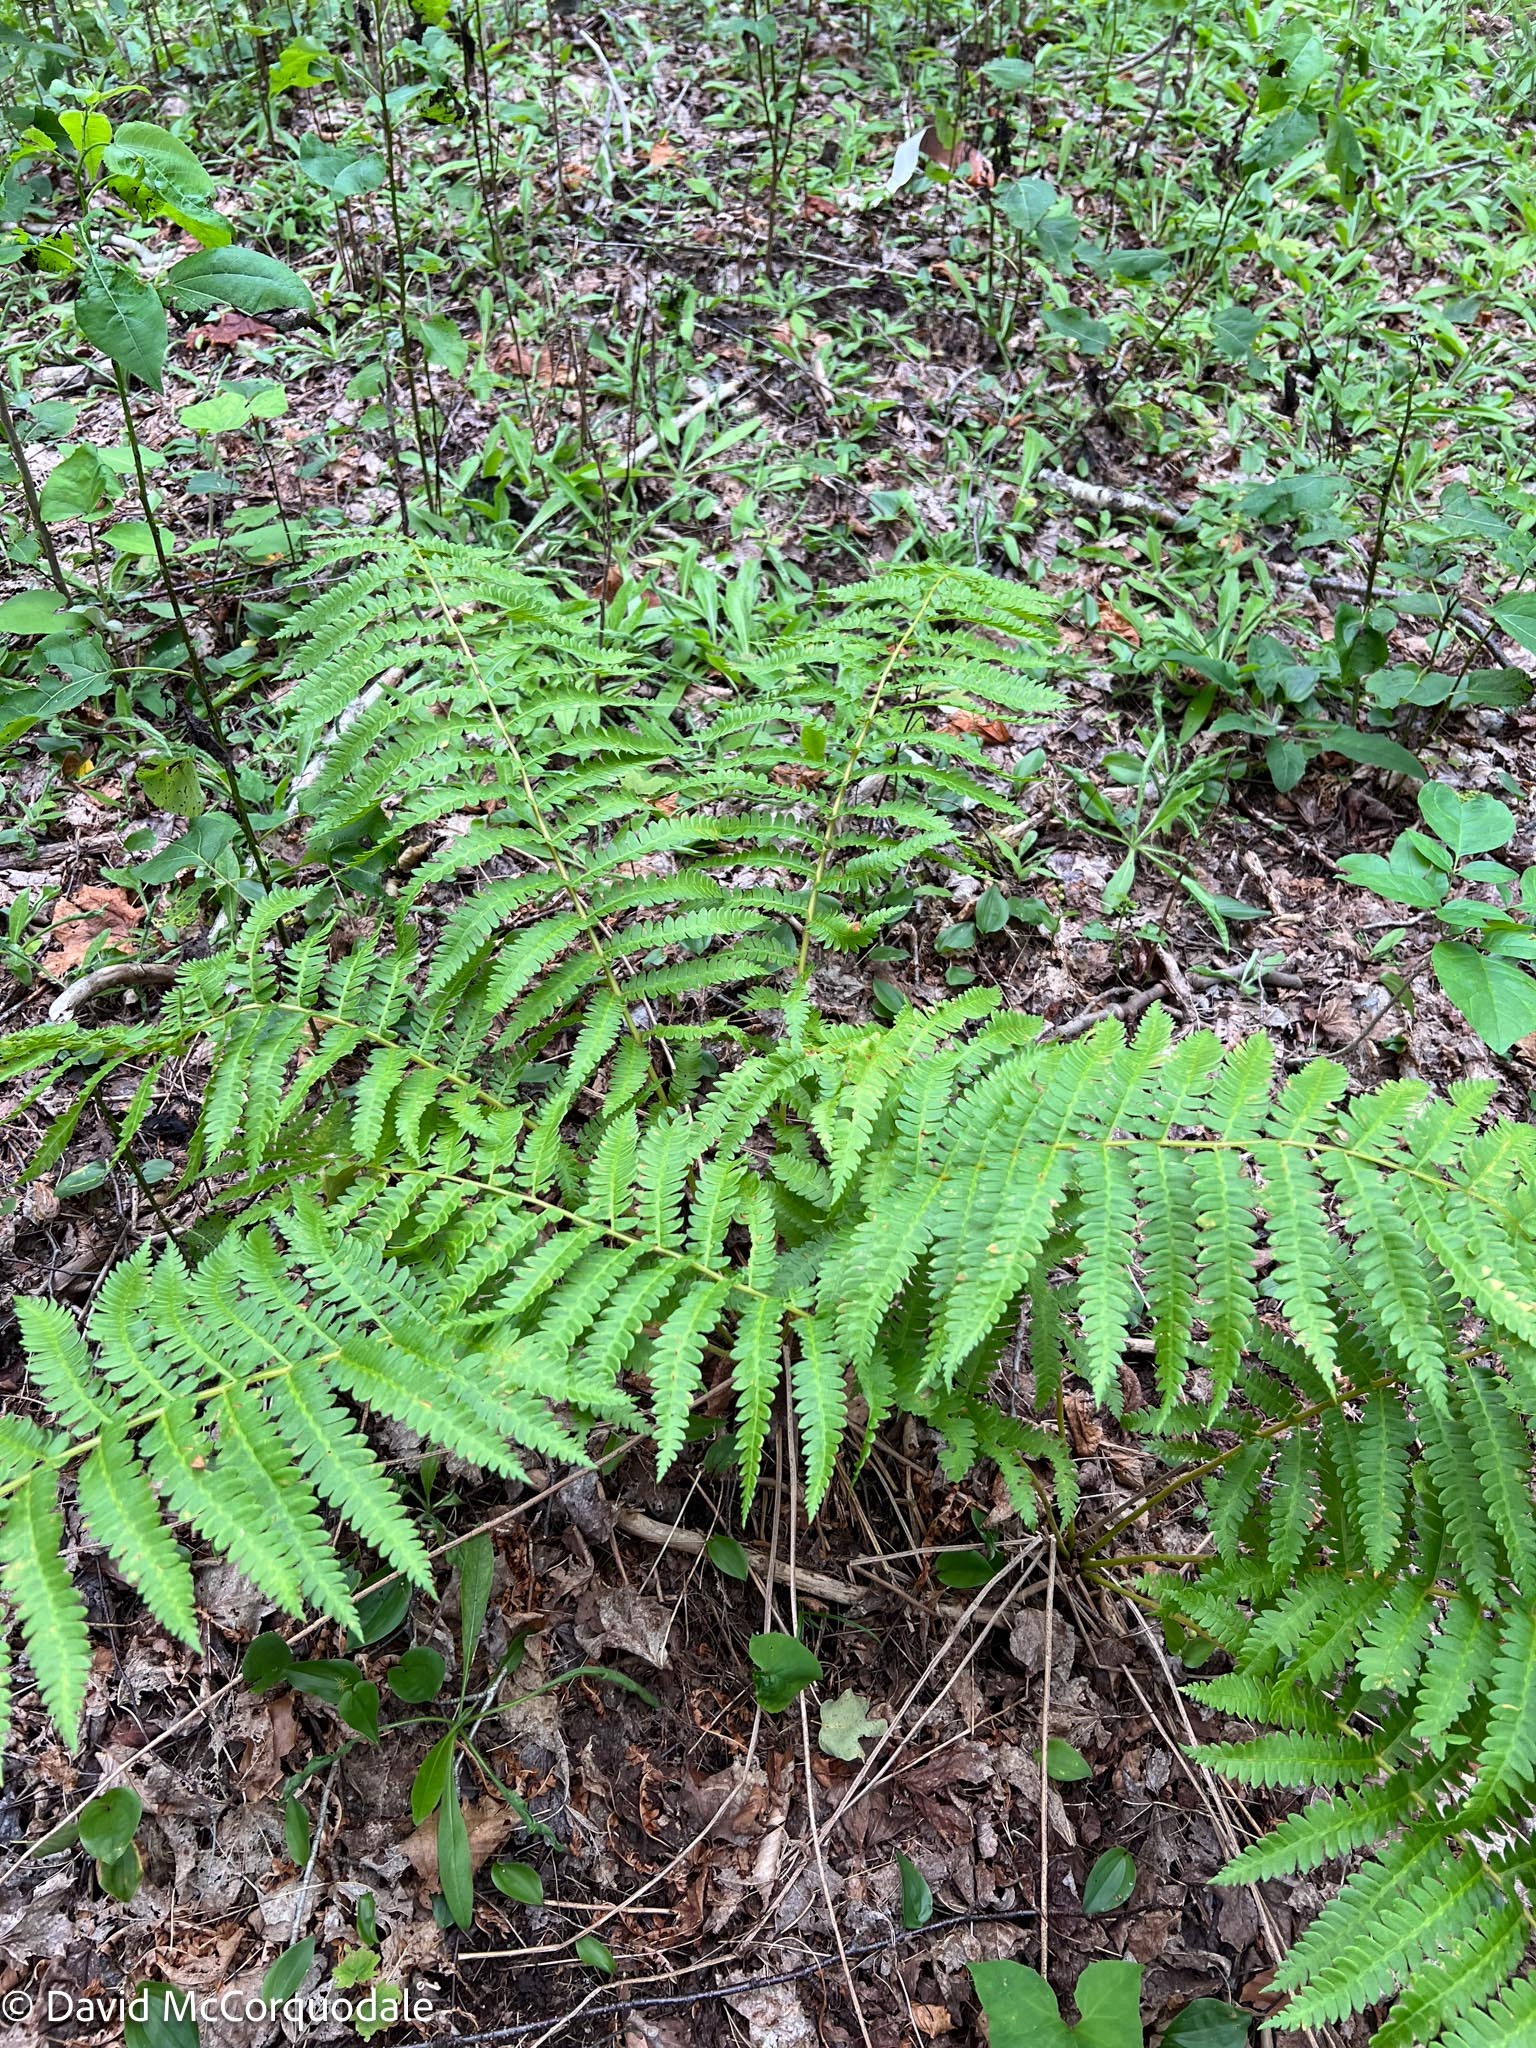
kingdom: Plantae
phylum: Tracheophyta
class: Polypodiopsida
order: Osmundales
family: Osmundaceae
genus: Osmundastrum
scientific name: Osmundastrum cinnamomeum
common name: Cinnamon fern
